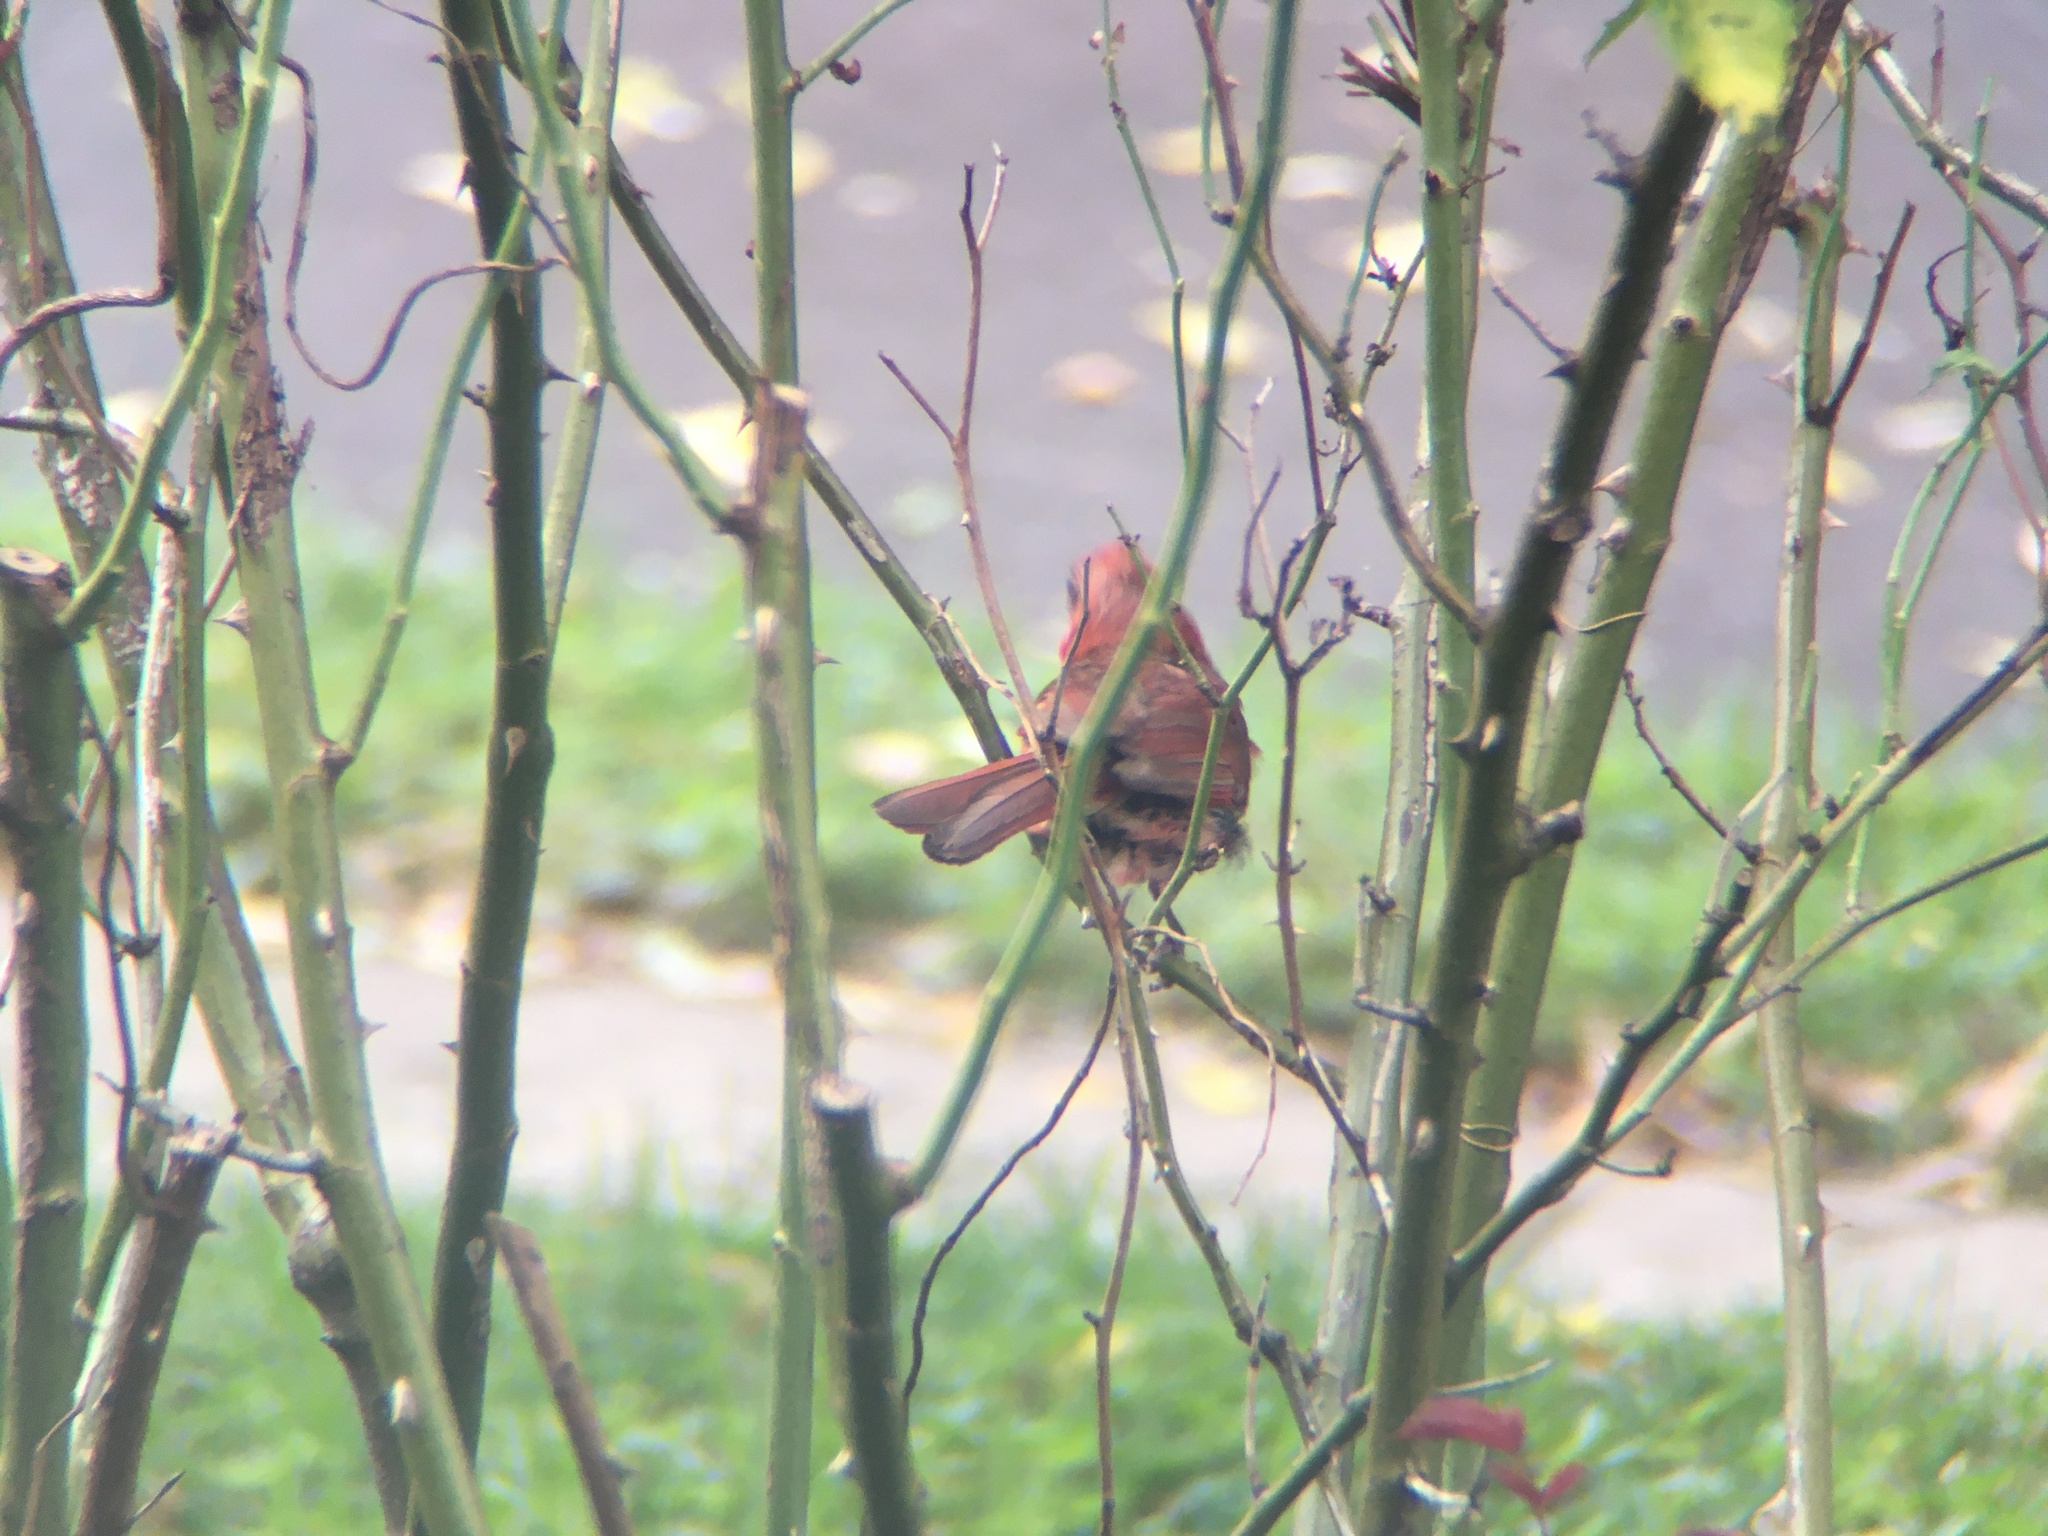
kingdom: Animalia
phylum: Chordata
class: Aves
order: Passeriformes
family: Cardinalidae
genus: Cardinalis
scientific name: Cardinalis cardinalis
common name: Northern cardinal
